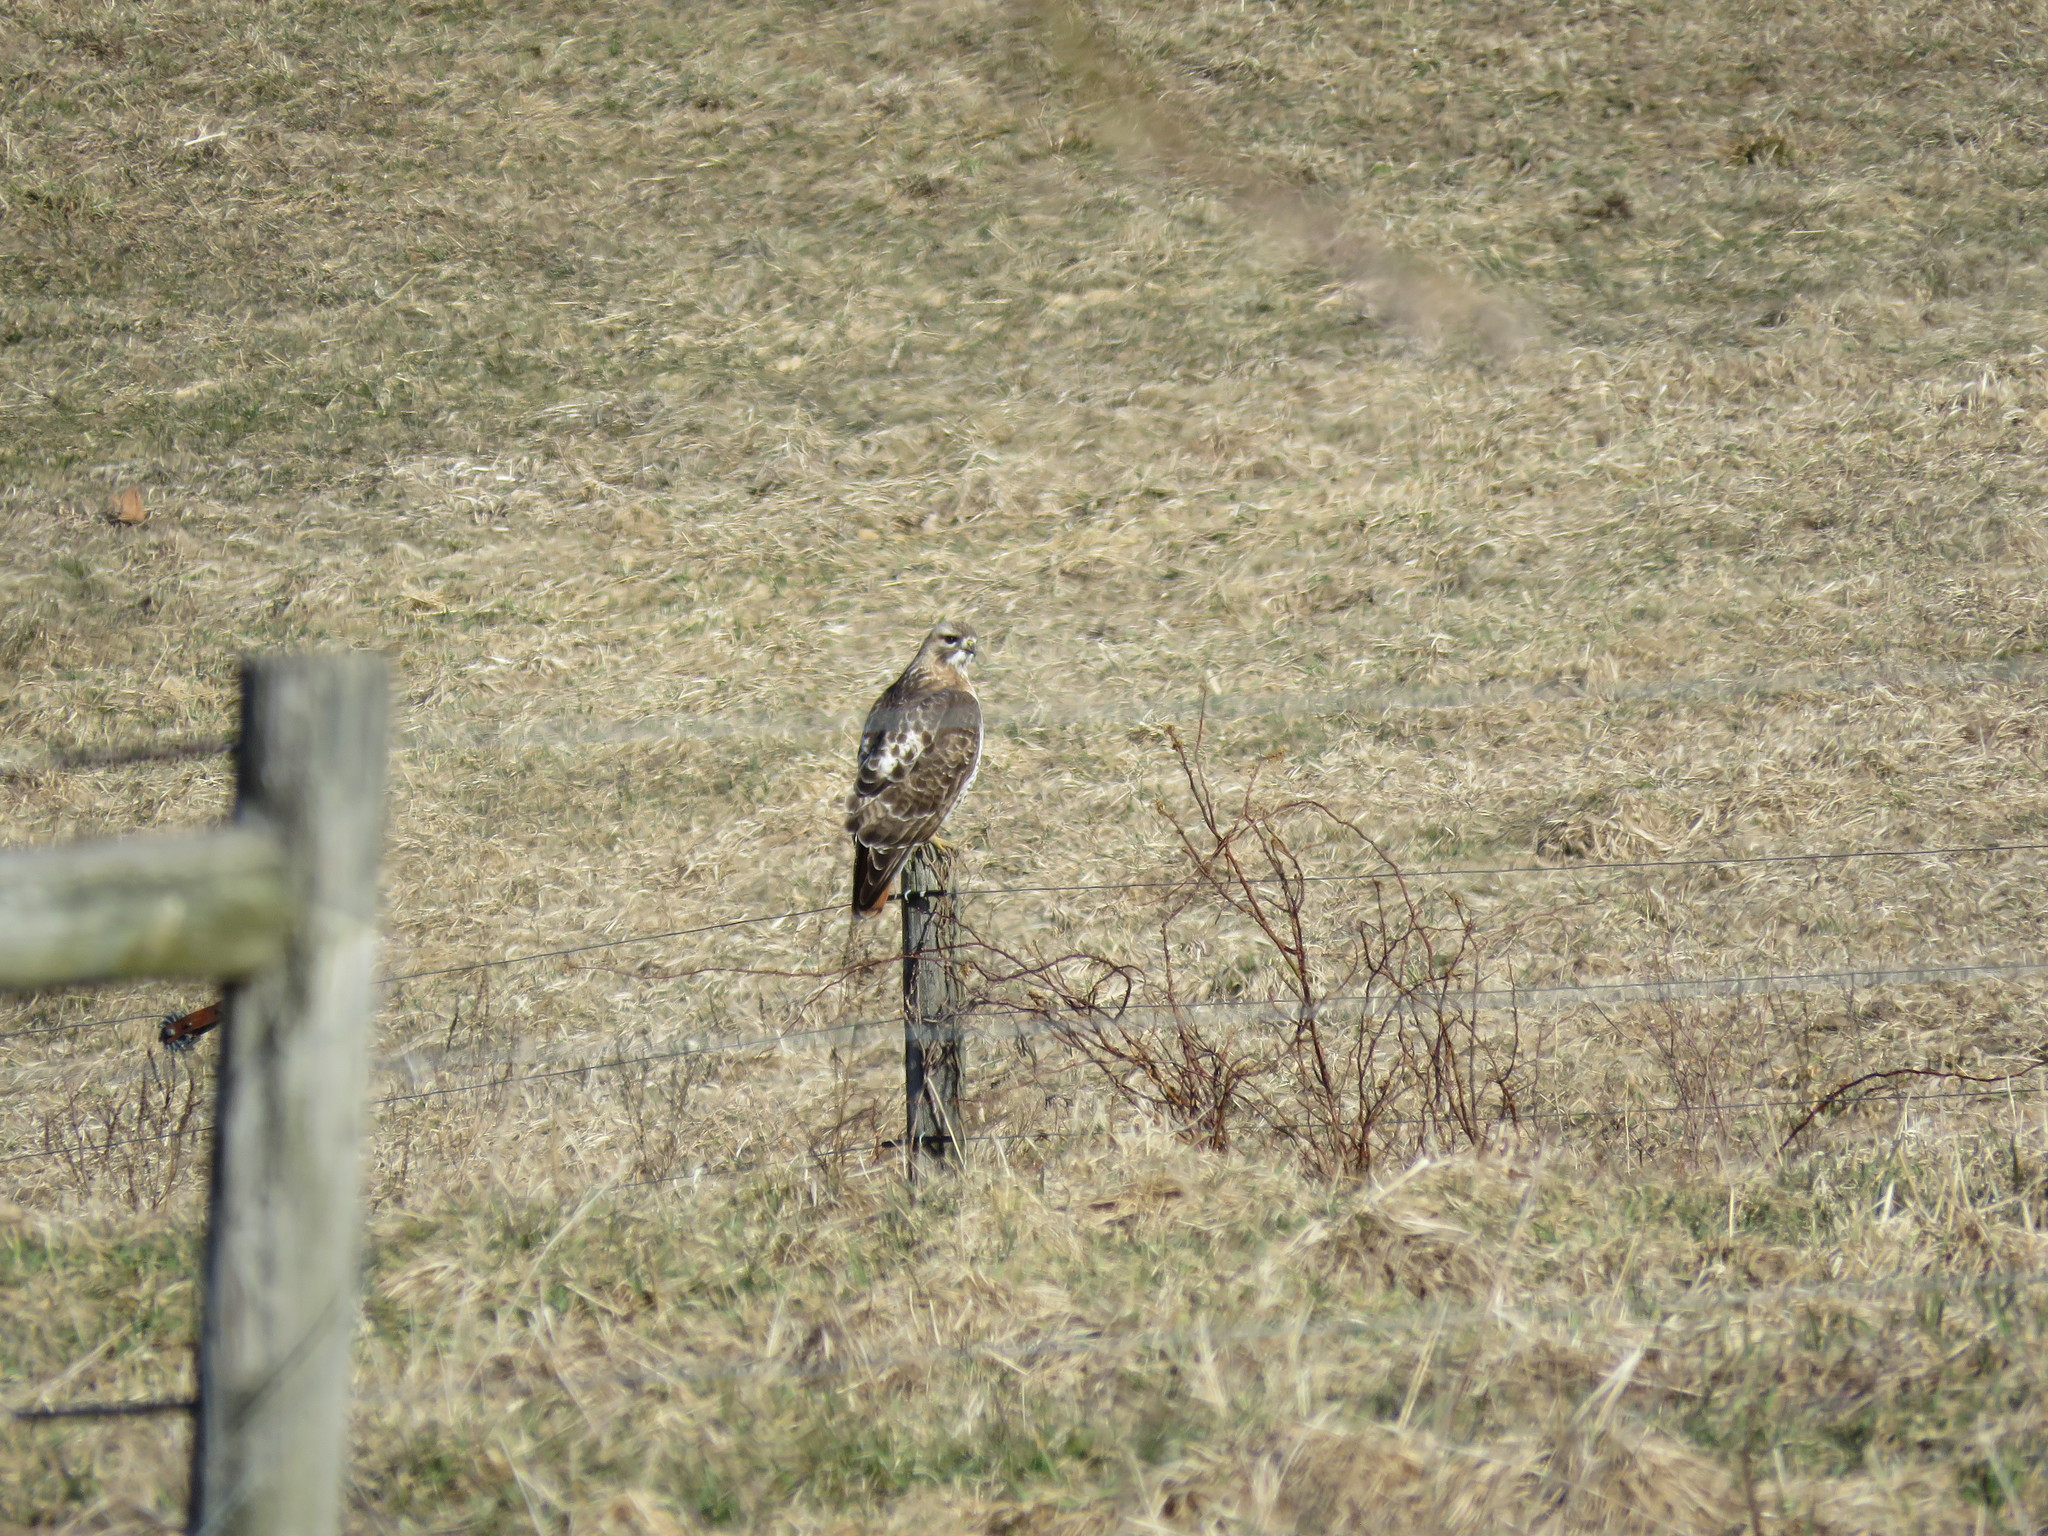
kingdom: Animalia
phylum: Chordata
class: Aves
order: Accipitriformes
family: Accipitridae
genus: Buteo
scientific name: Buteo jamaicensis
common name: Red-tailed hawk
